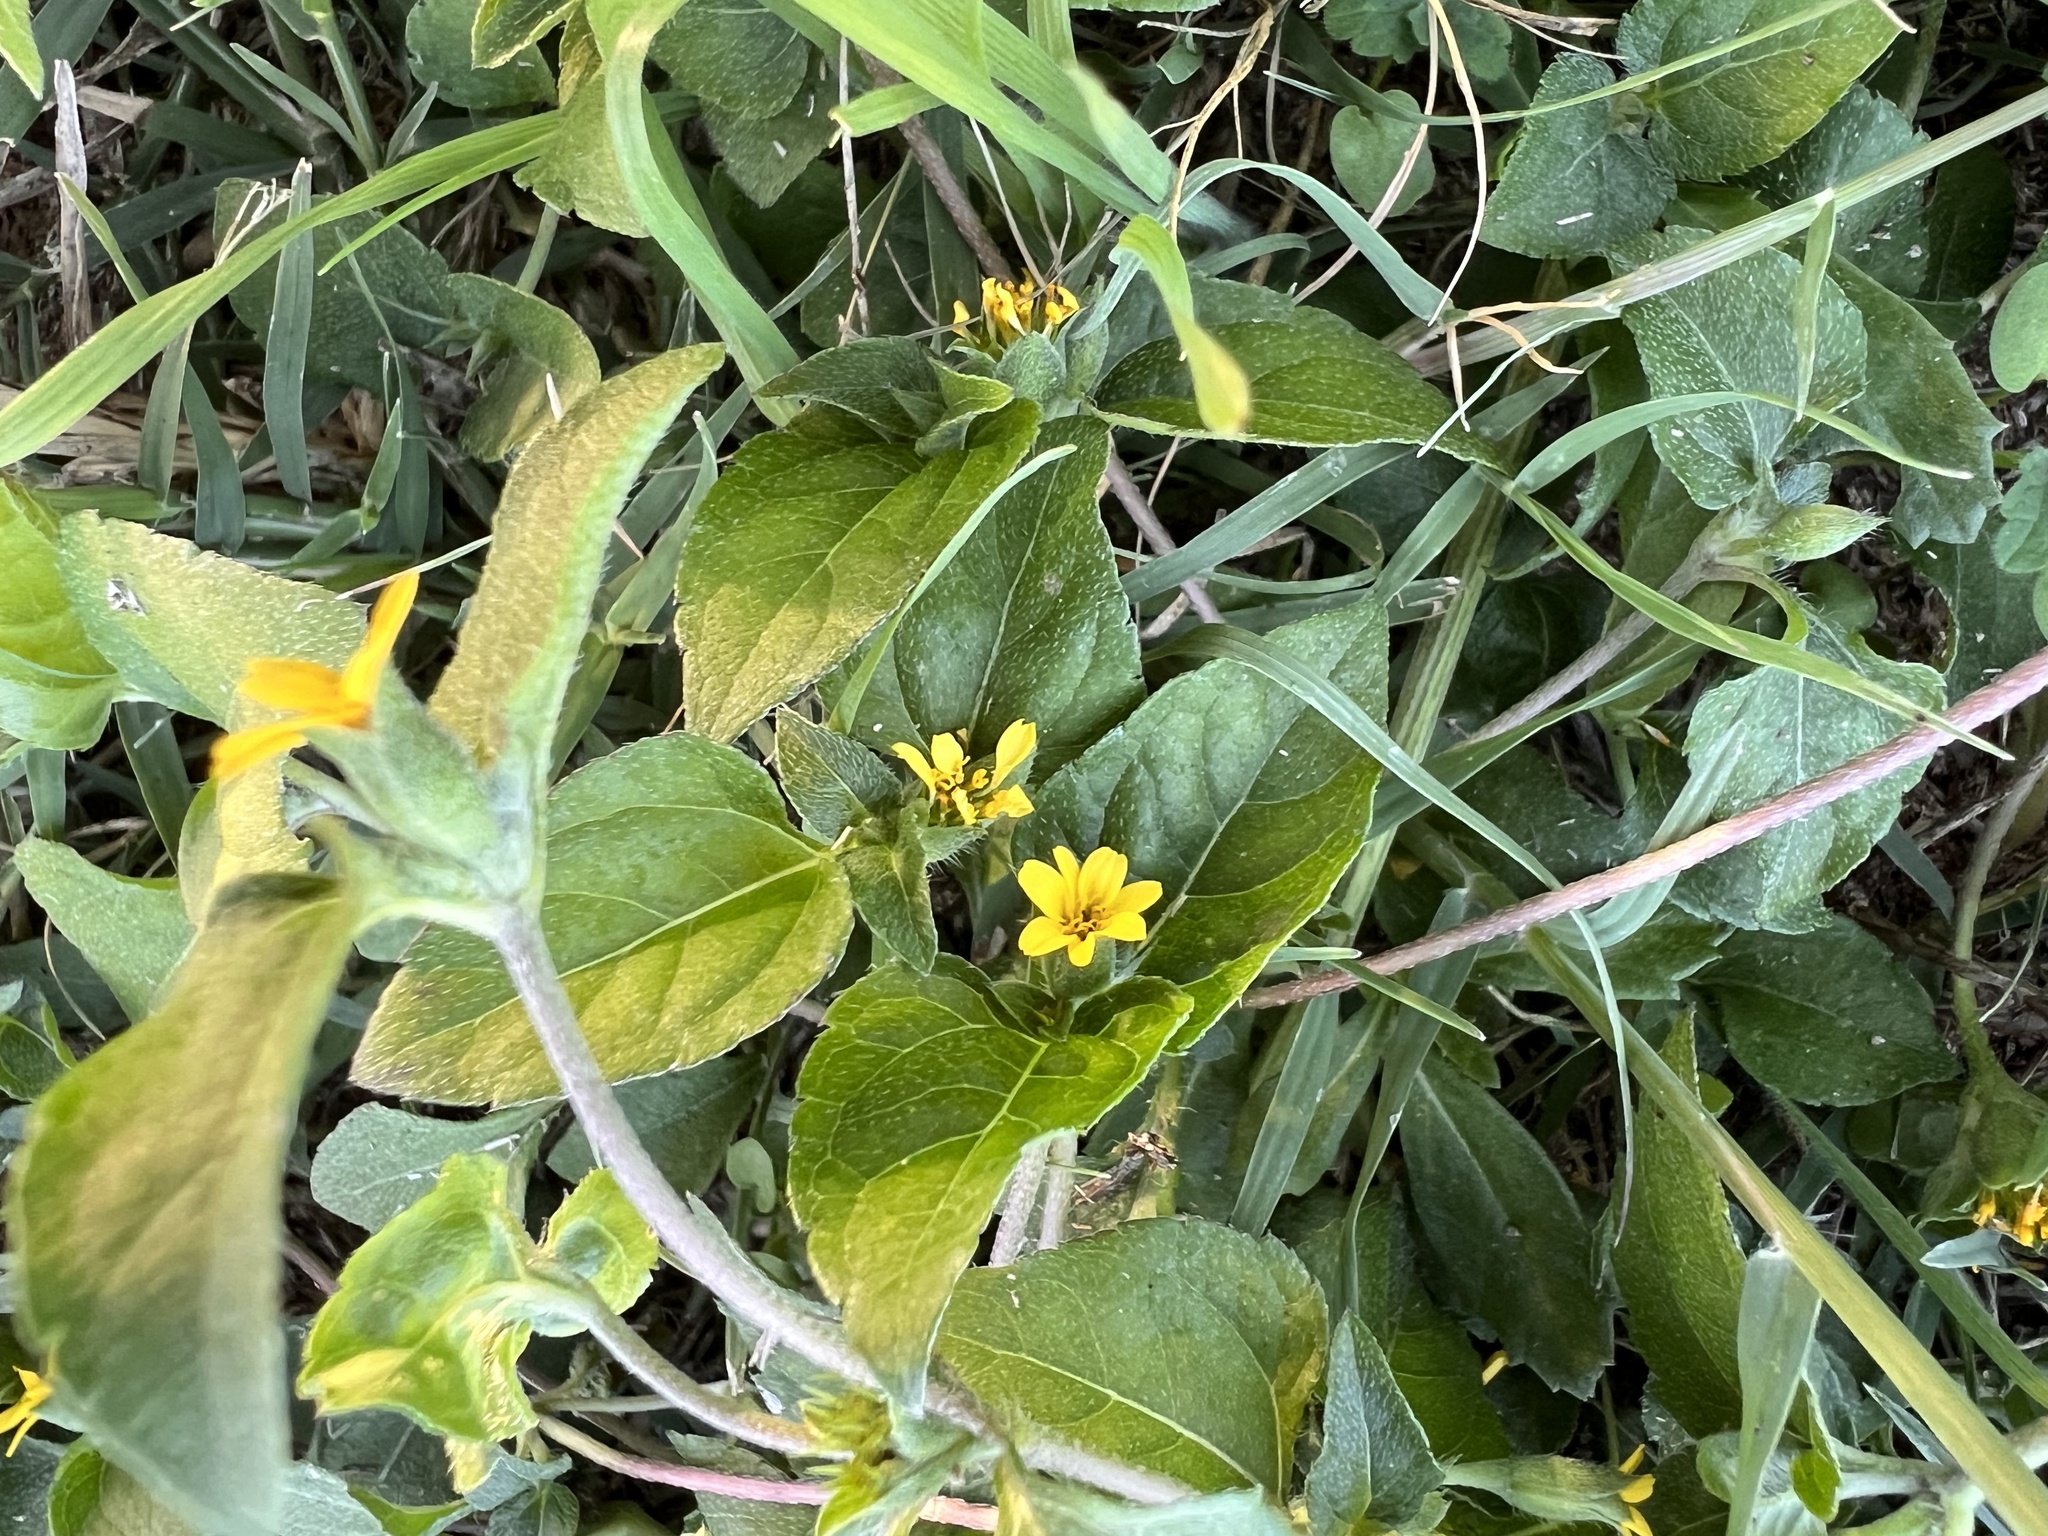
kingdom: Plantae
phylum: Tracheophyta
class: Magnoliopsida
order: Asterales
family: Asteraceae
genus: Calyptocarpus
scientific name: Calyptocarpus vialis
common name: Straggler daisy
